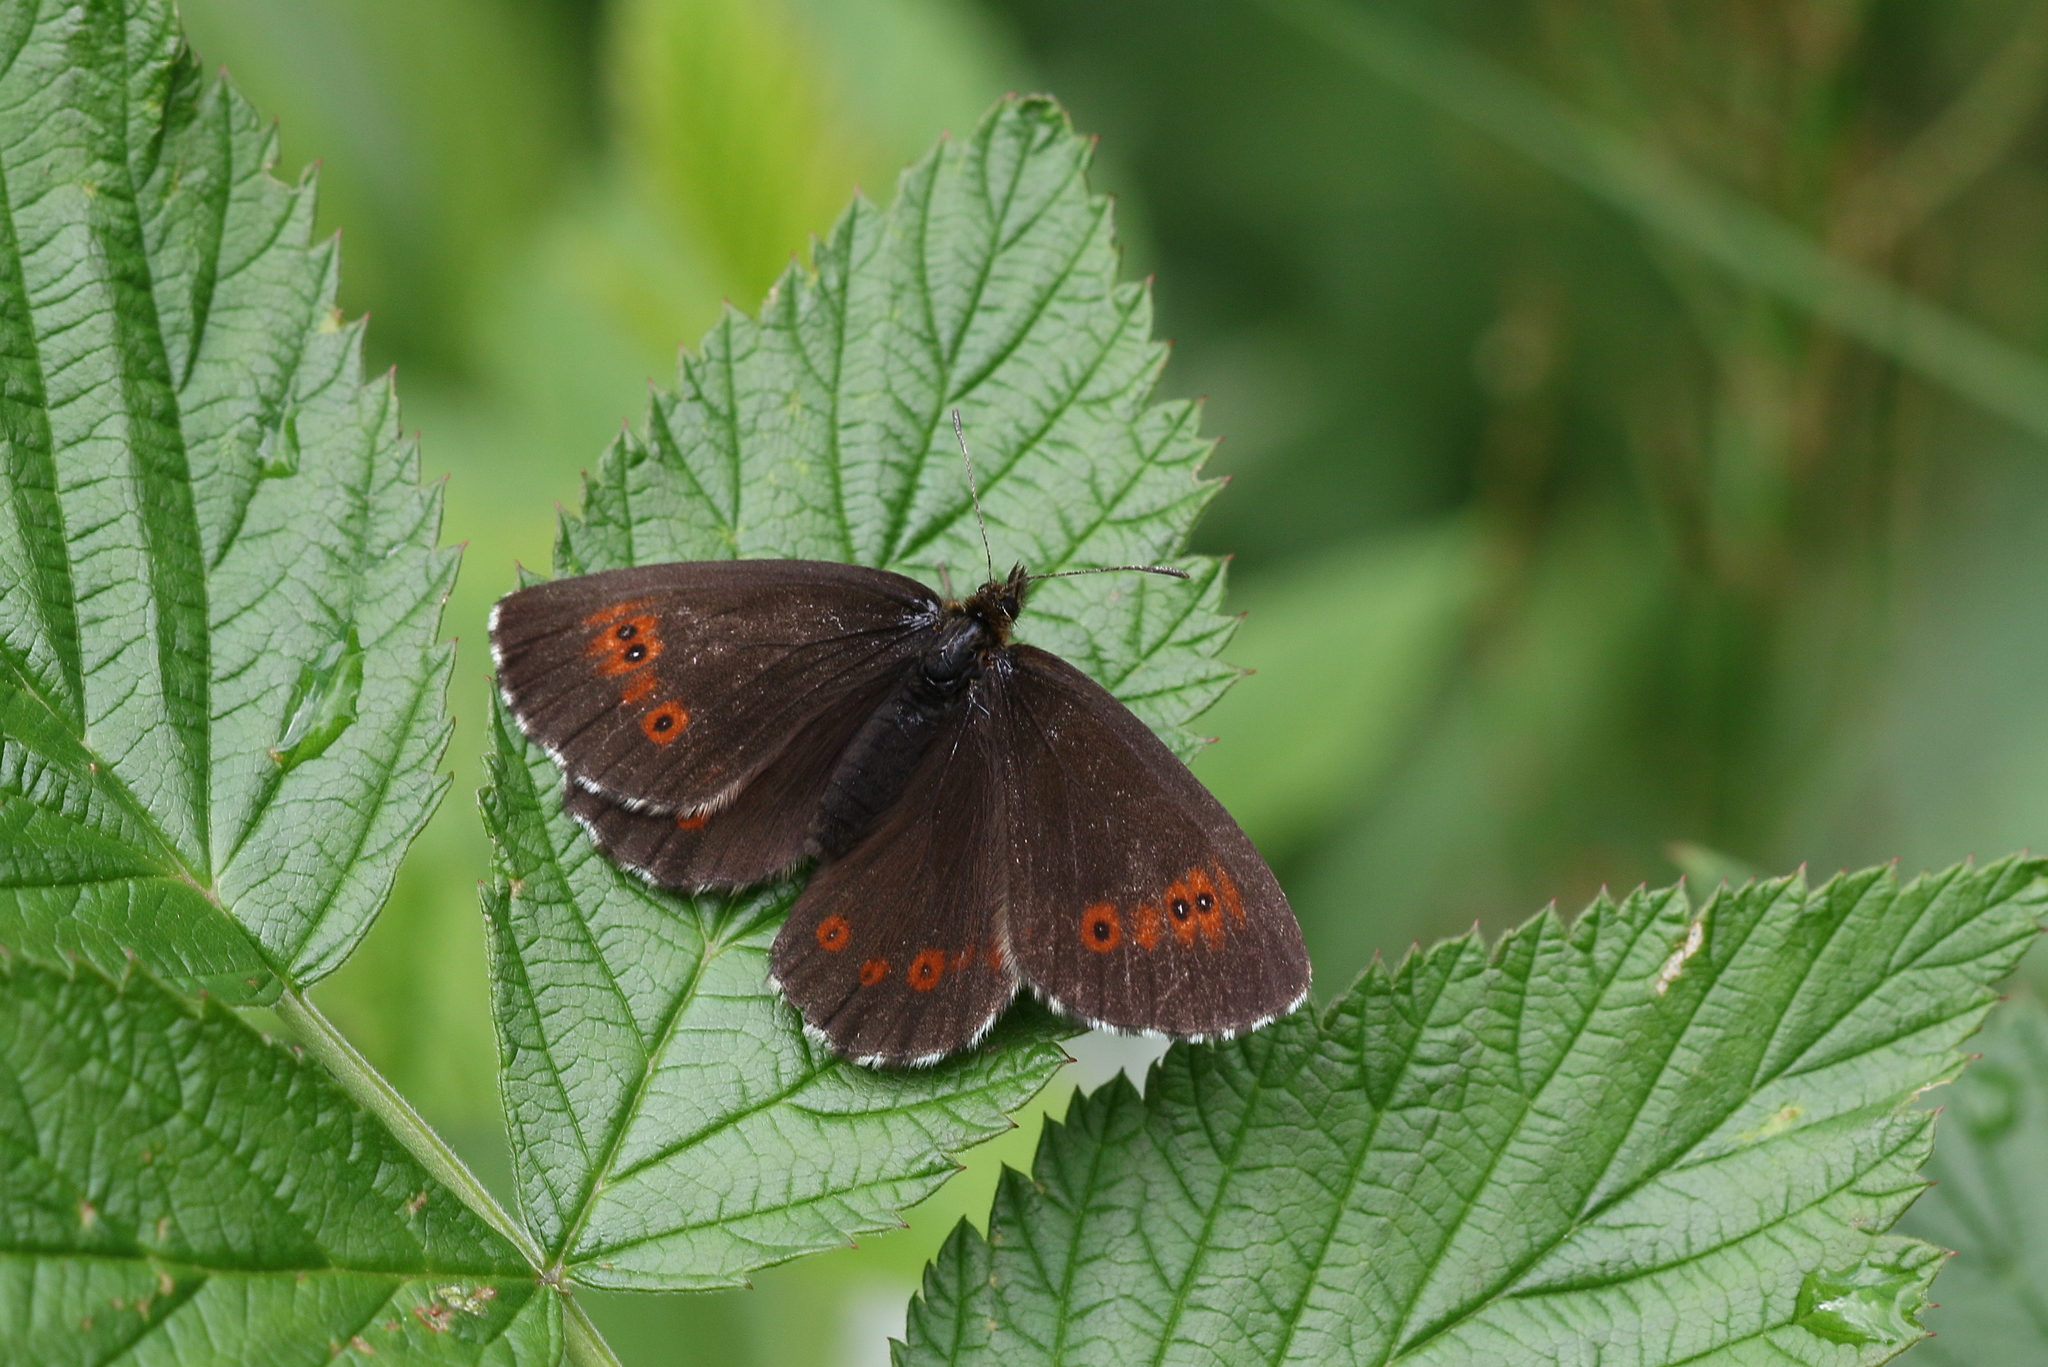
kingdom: Animalia
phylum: Arthropoda
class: Insecta
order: Lepidoptera
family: Nymphalidae
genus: Erebia
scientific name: Erebia euryale
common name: Large ringlet
